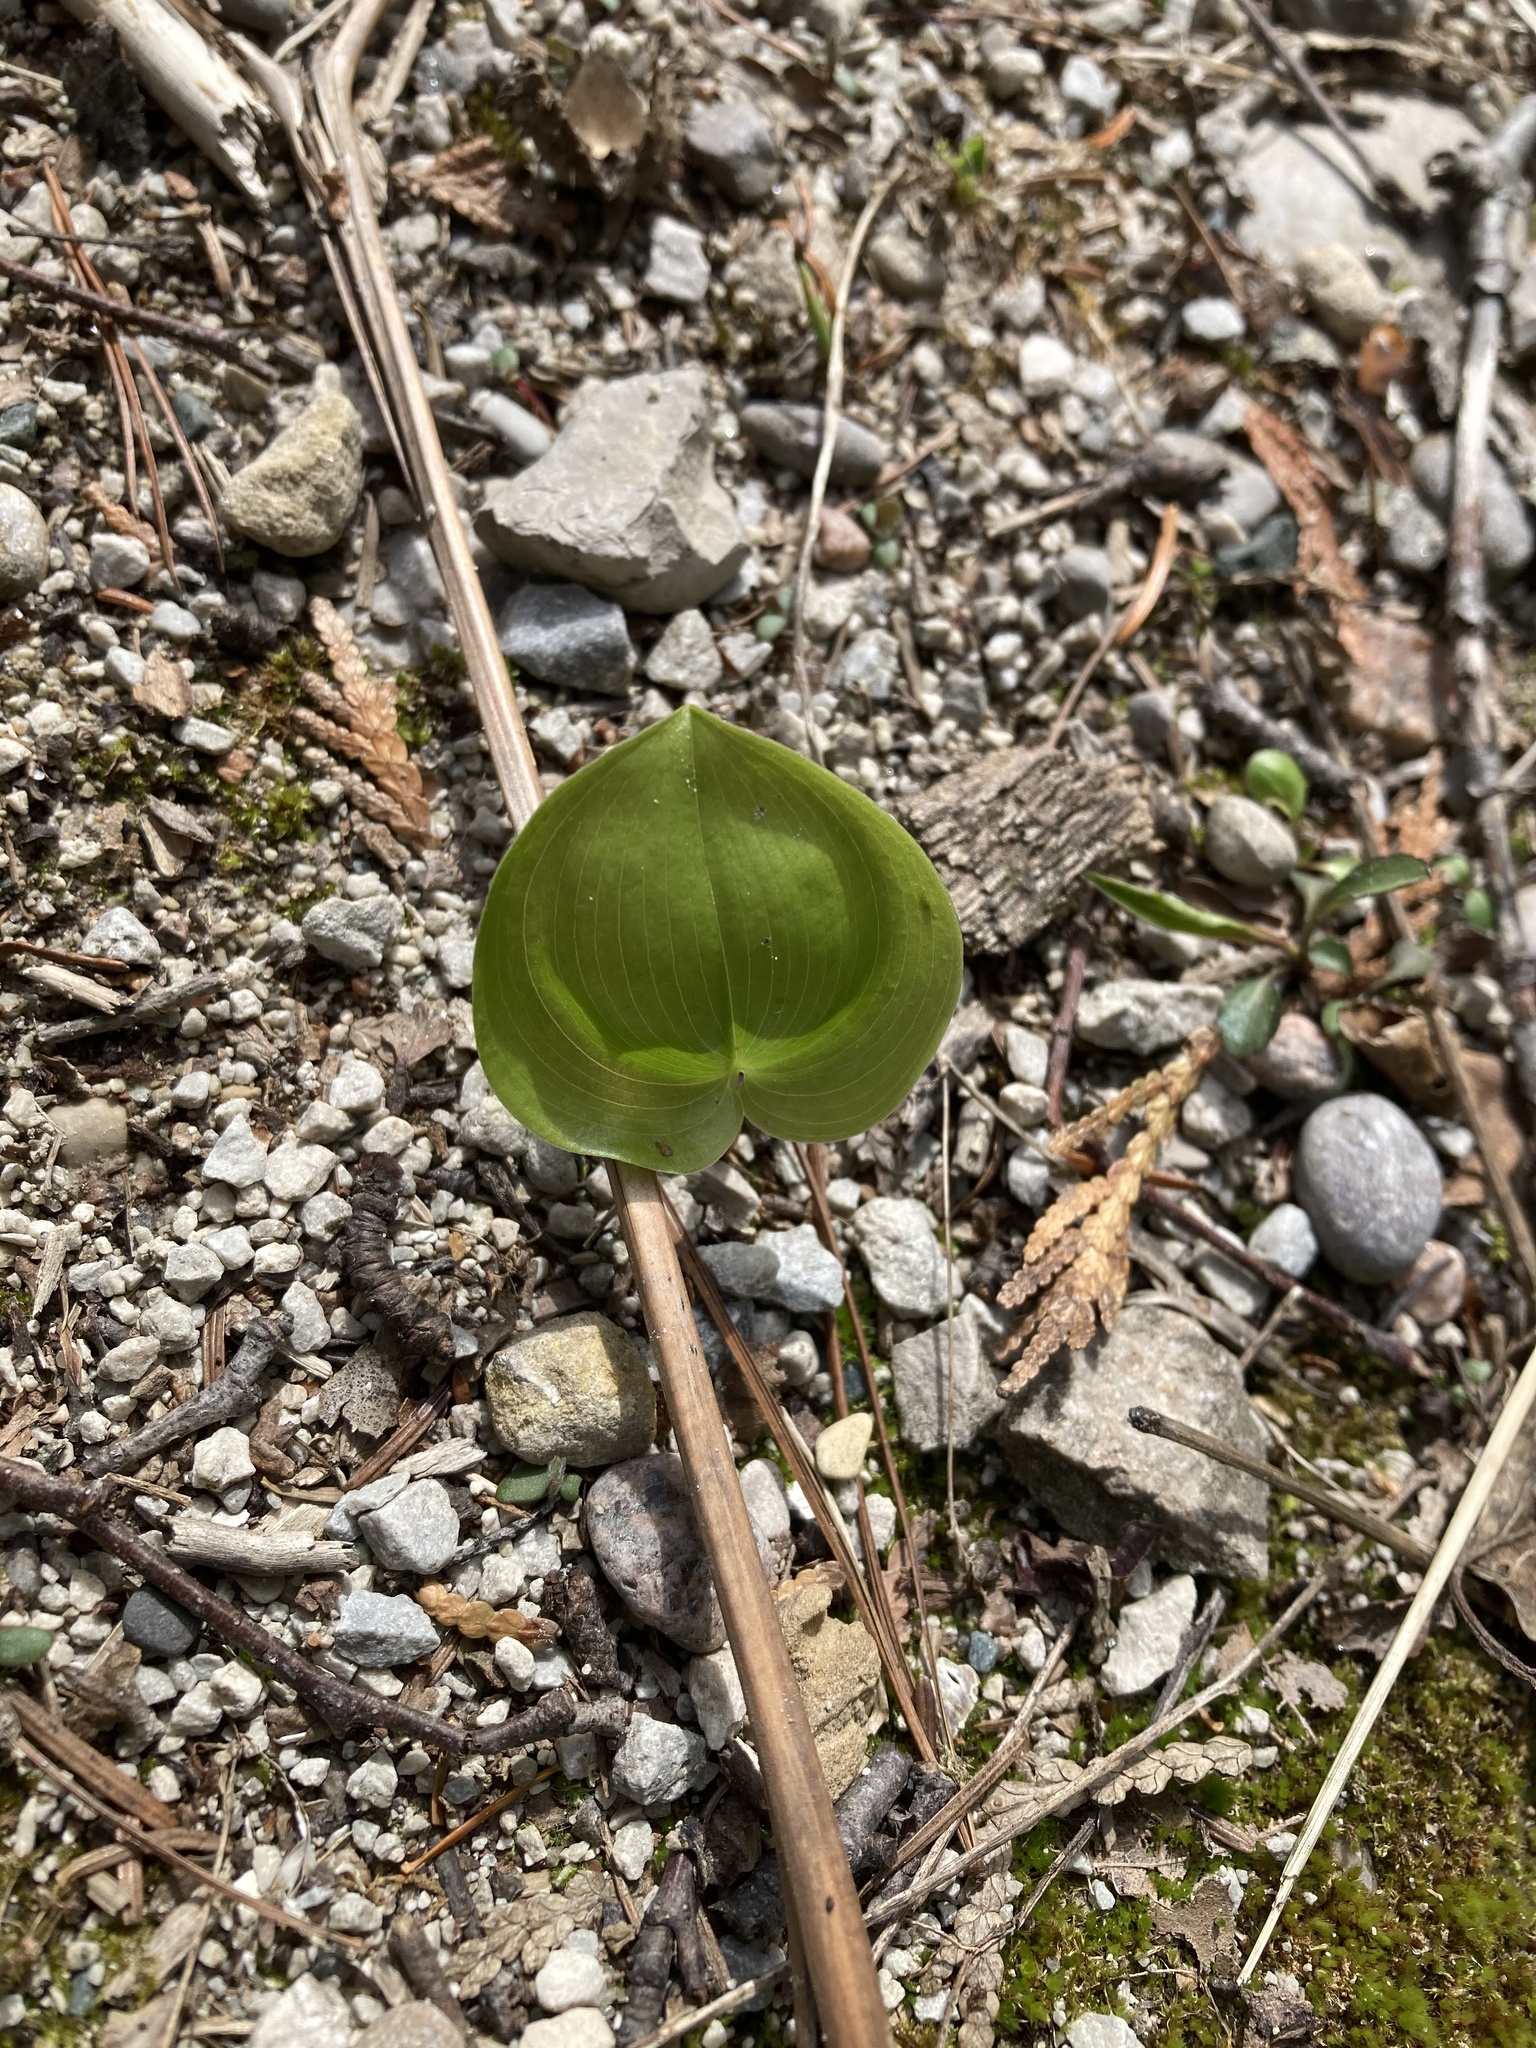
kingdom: Plantae
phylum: Tracheophyta
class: Liliopsida
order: Asparagales
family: Asparagaceae
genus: Maianthemum
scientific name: Maianthemum canadense
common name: False lily-of-the-valley
